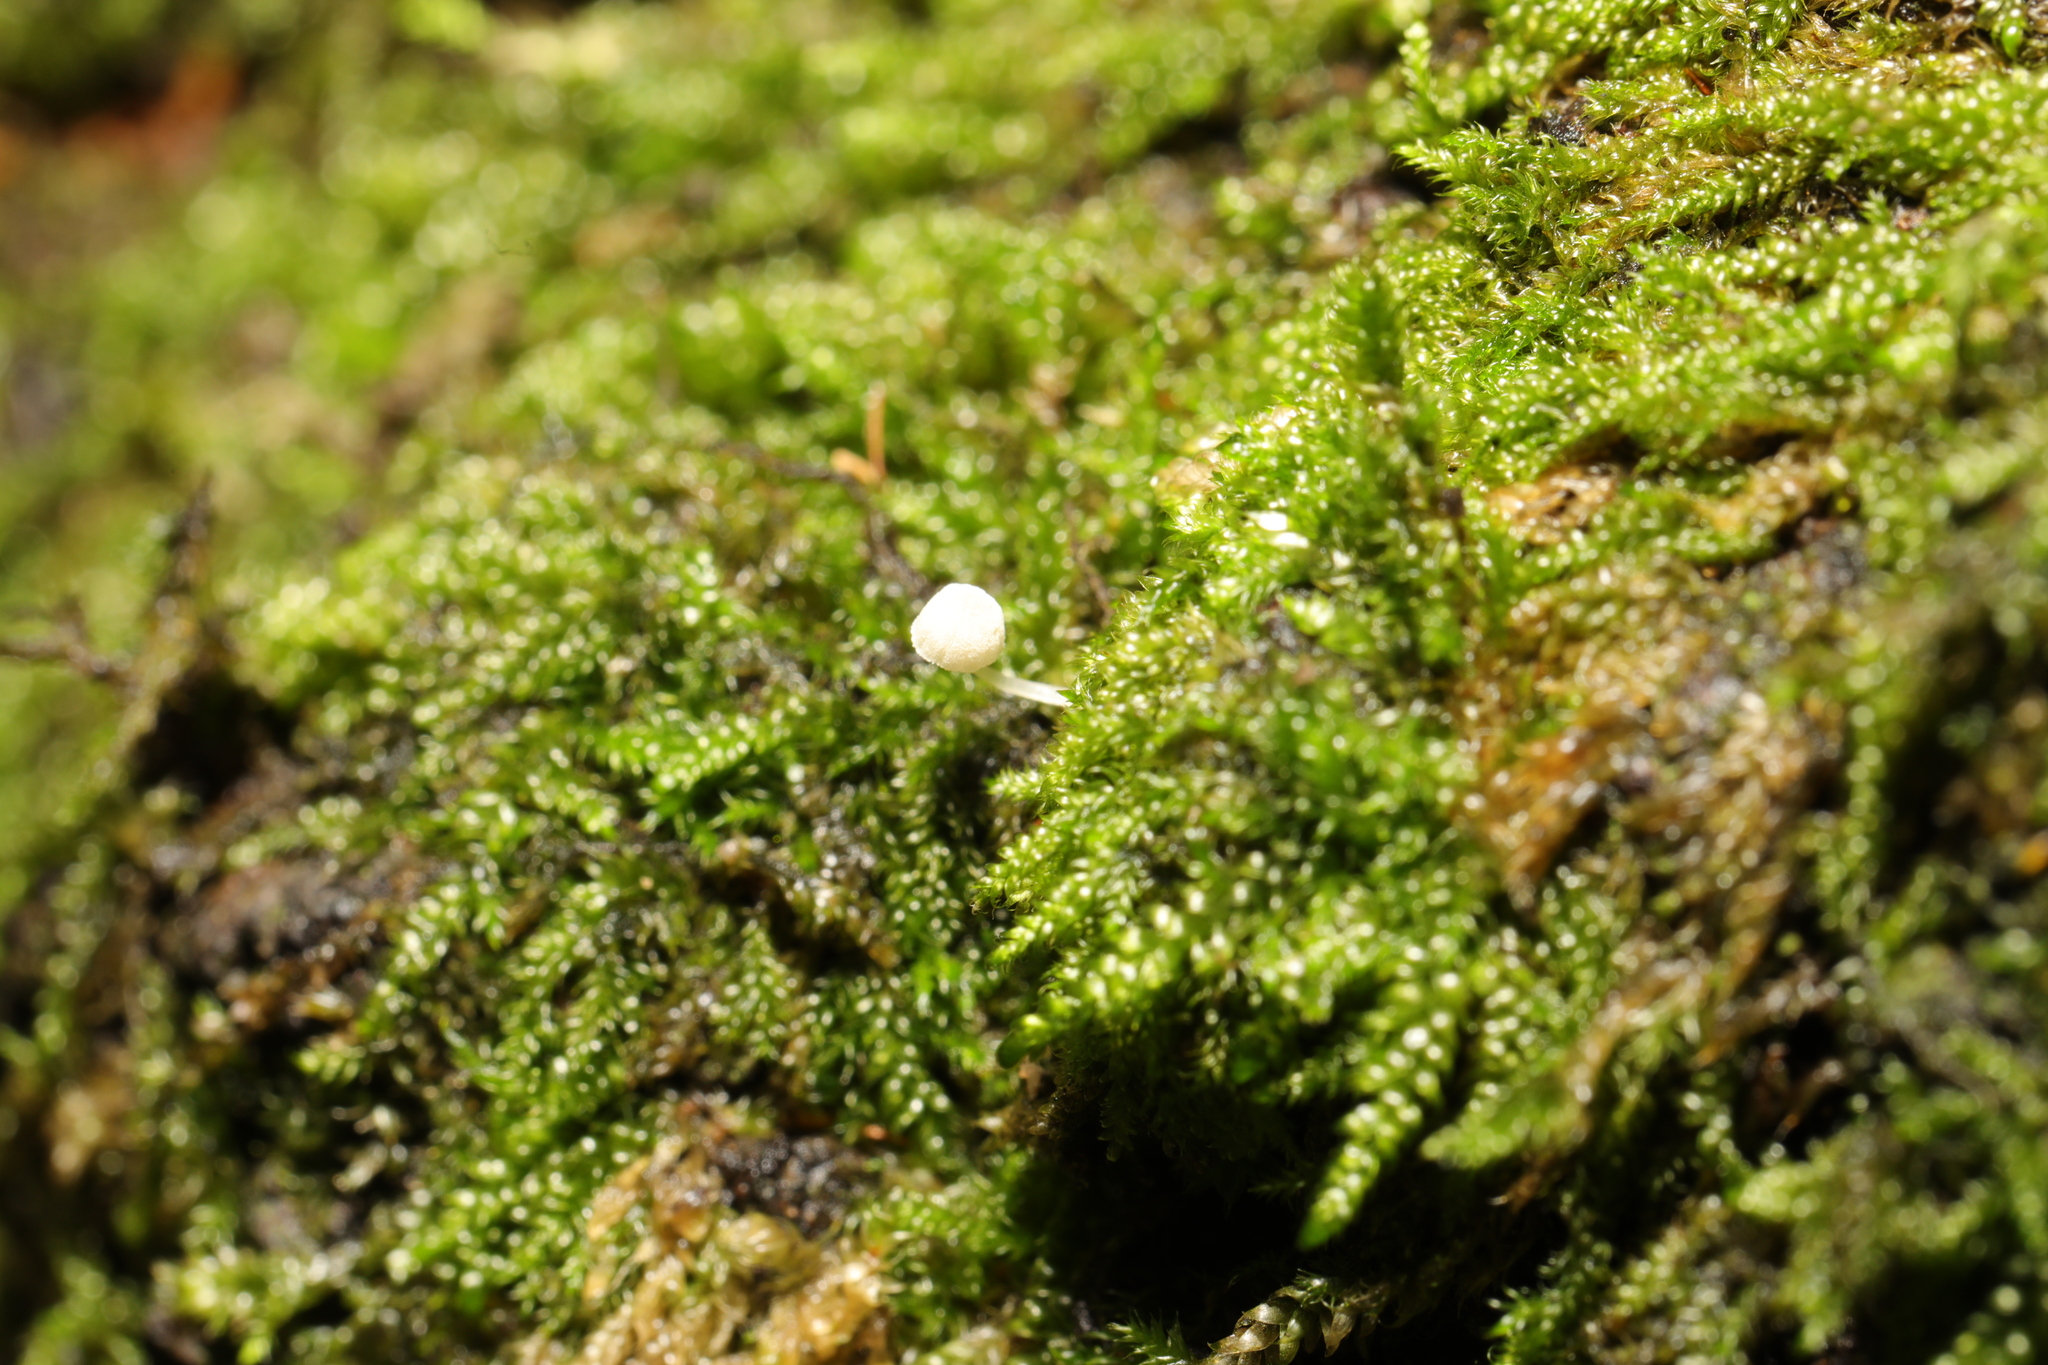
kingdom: Fungi
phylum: Basidiomycota
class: Agaricomycetes
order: Agaricales
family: Mycenaceae
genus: Mycena
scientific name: Mycena
